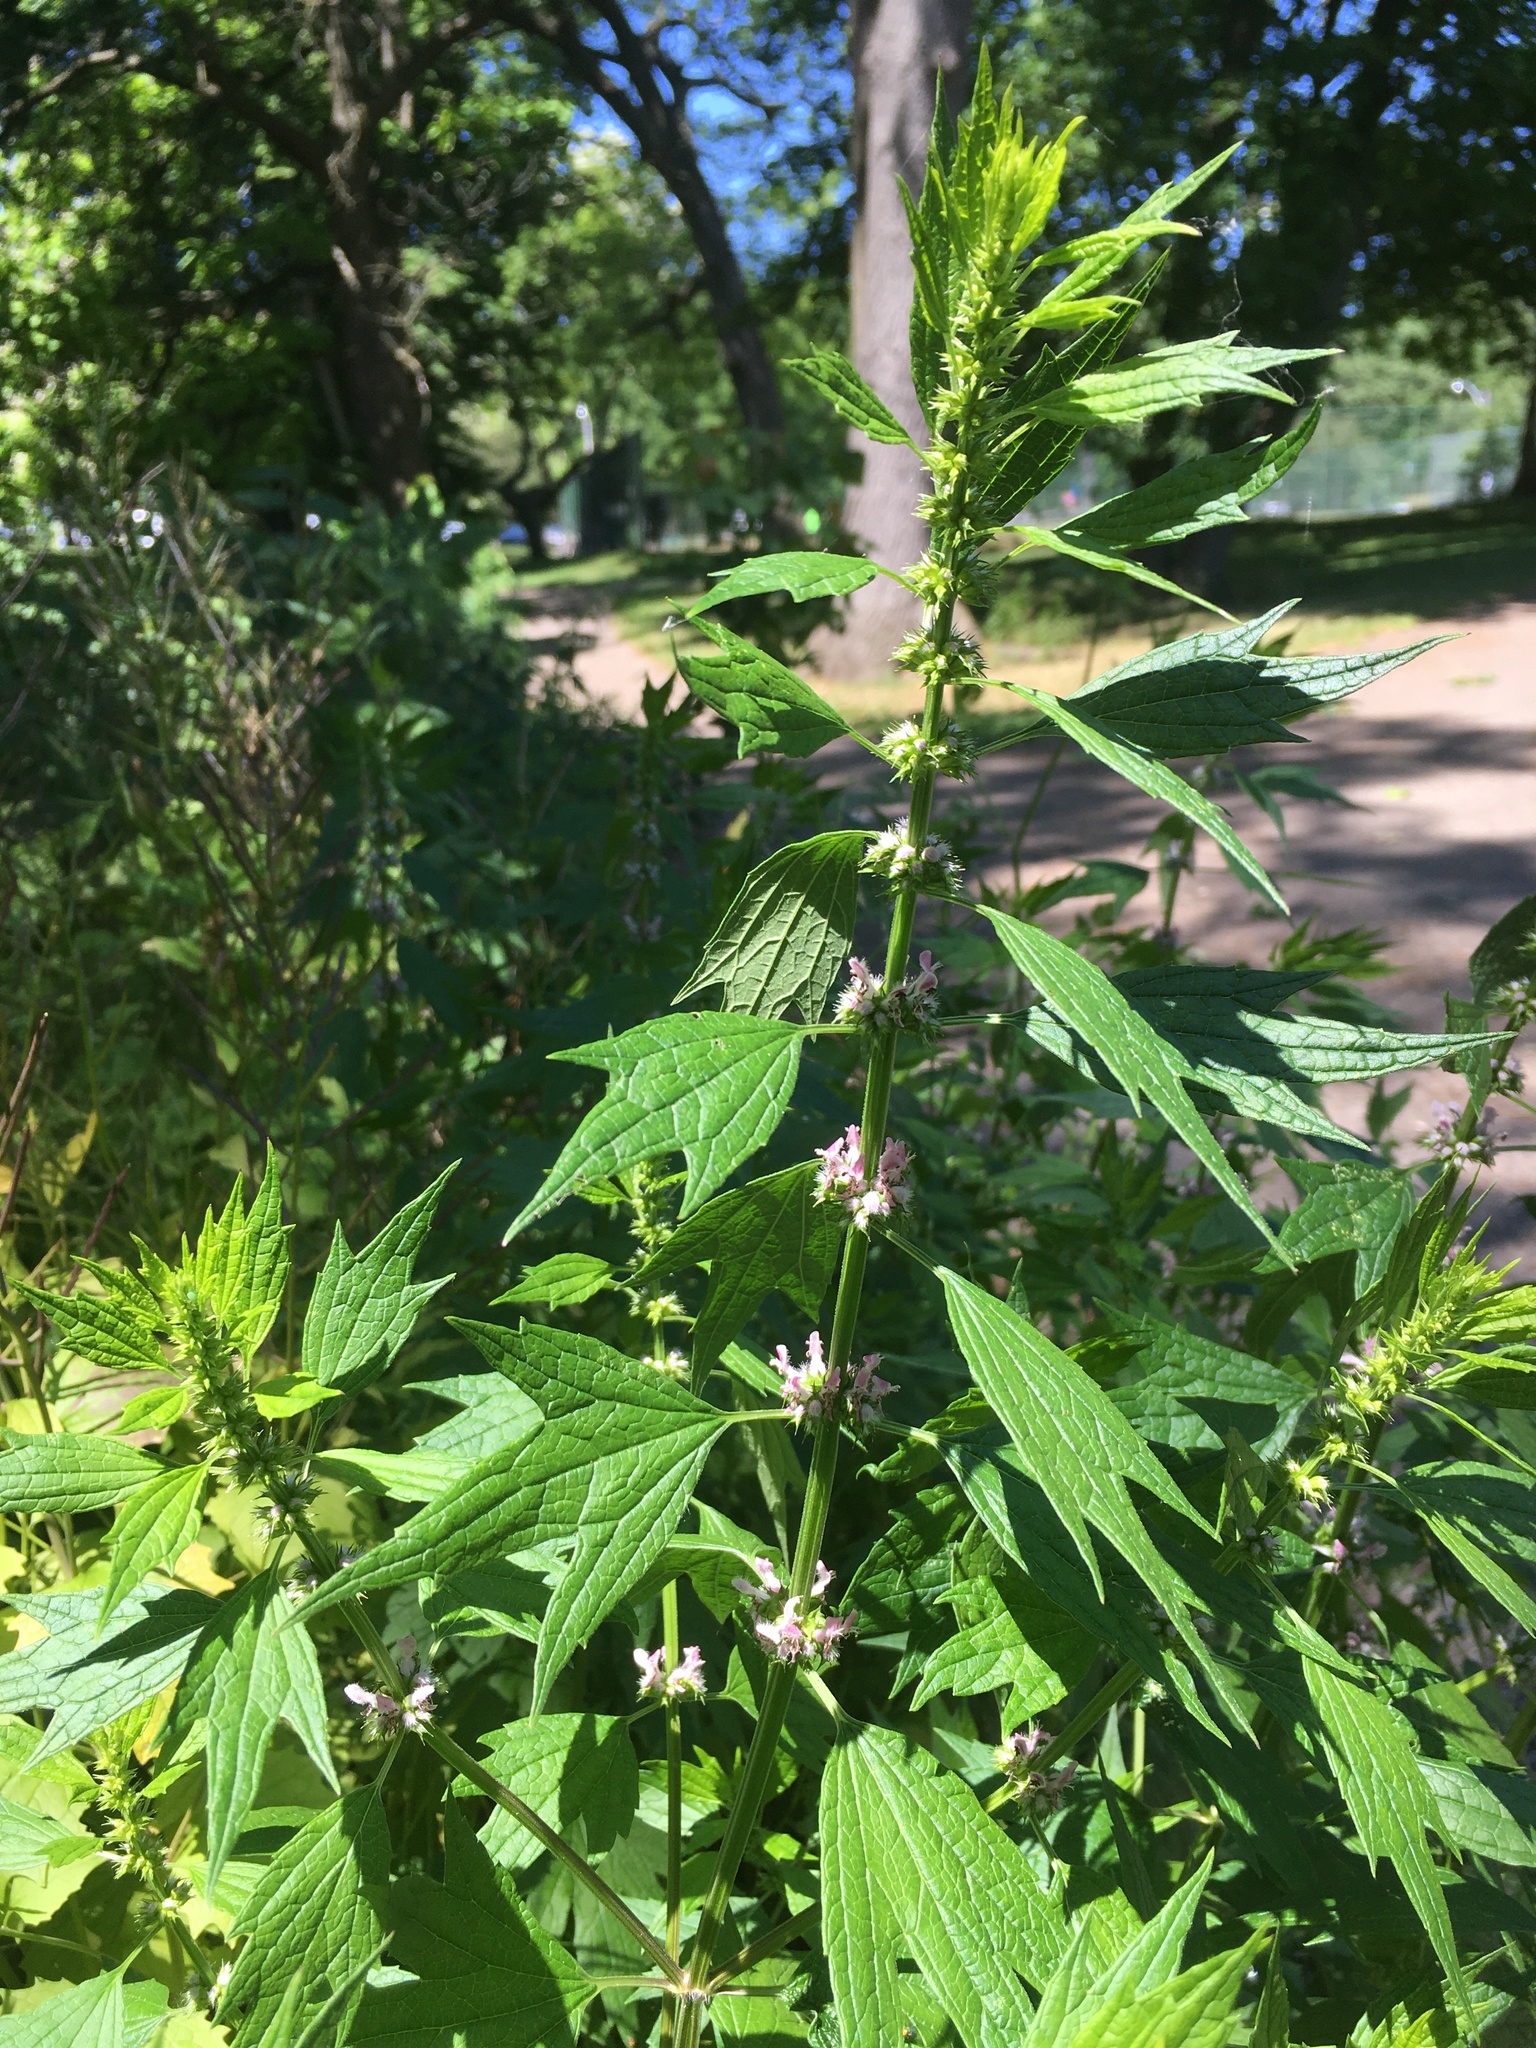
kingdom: Plantae
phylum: Tracheophyta
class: Magnoliopsida
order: Lamiales
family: Lamiaceae
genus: Leonurus
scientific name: Leonurus cardiaca
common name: Motherwort
